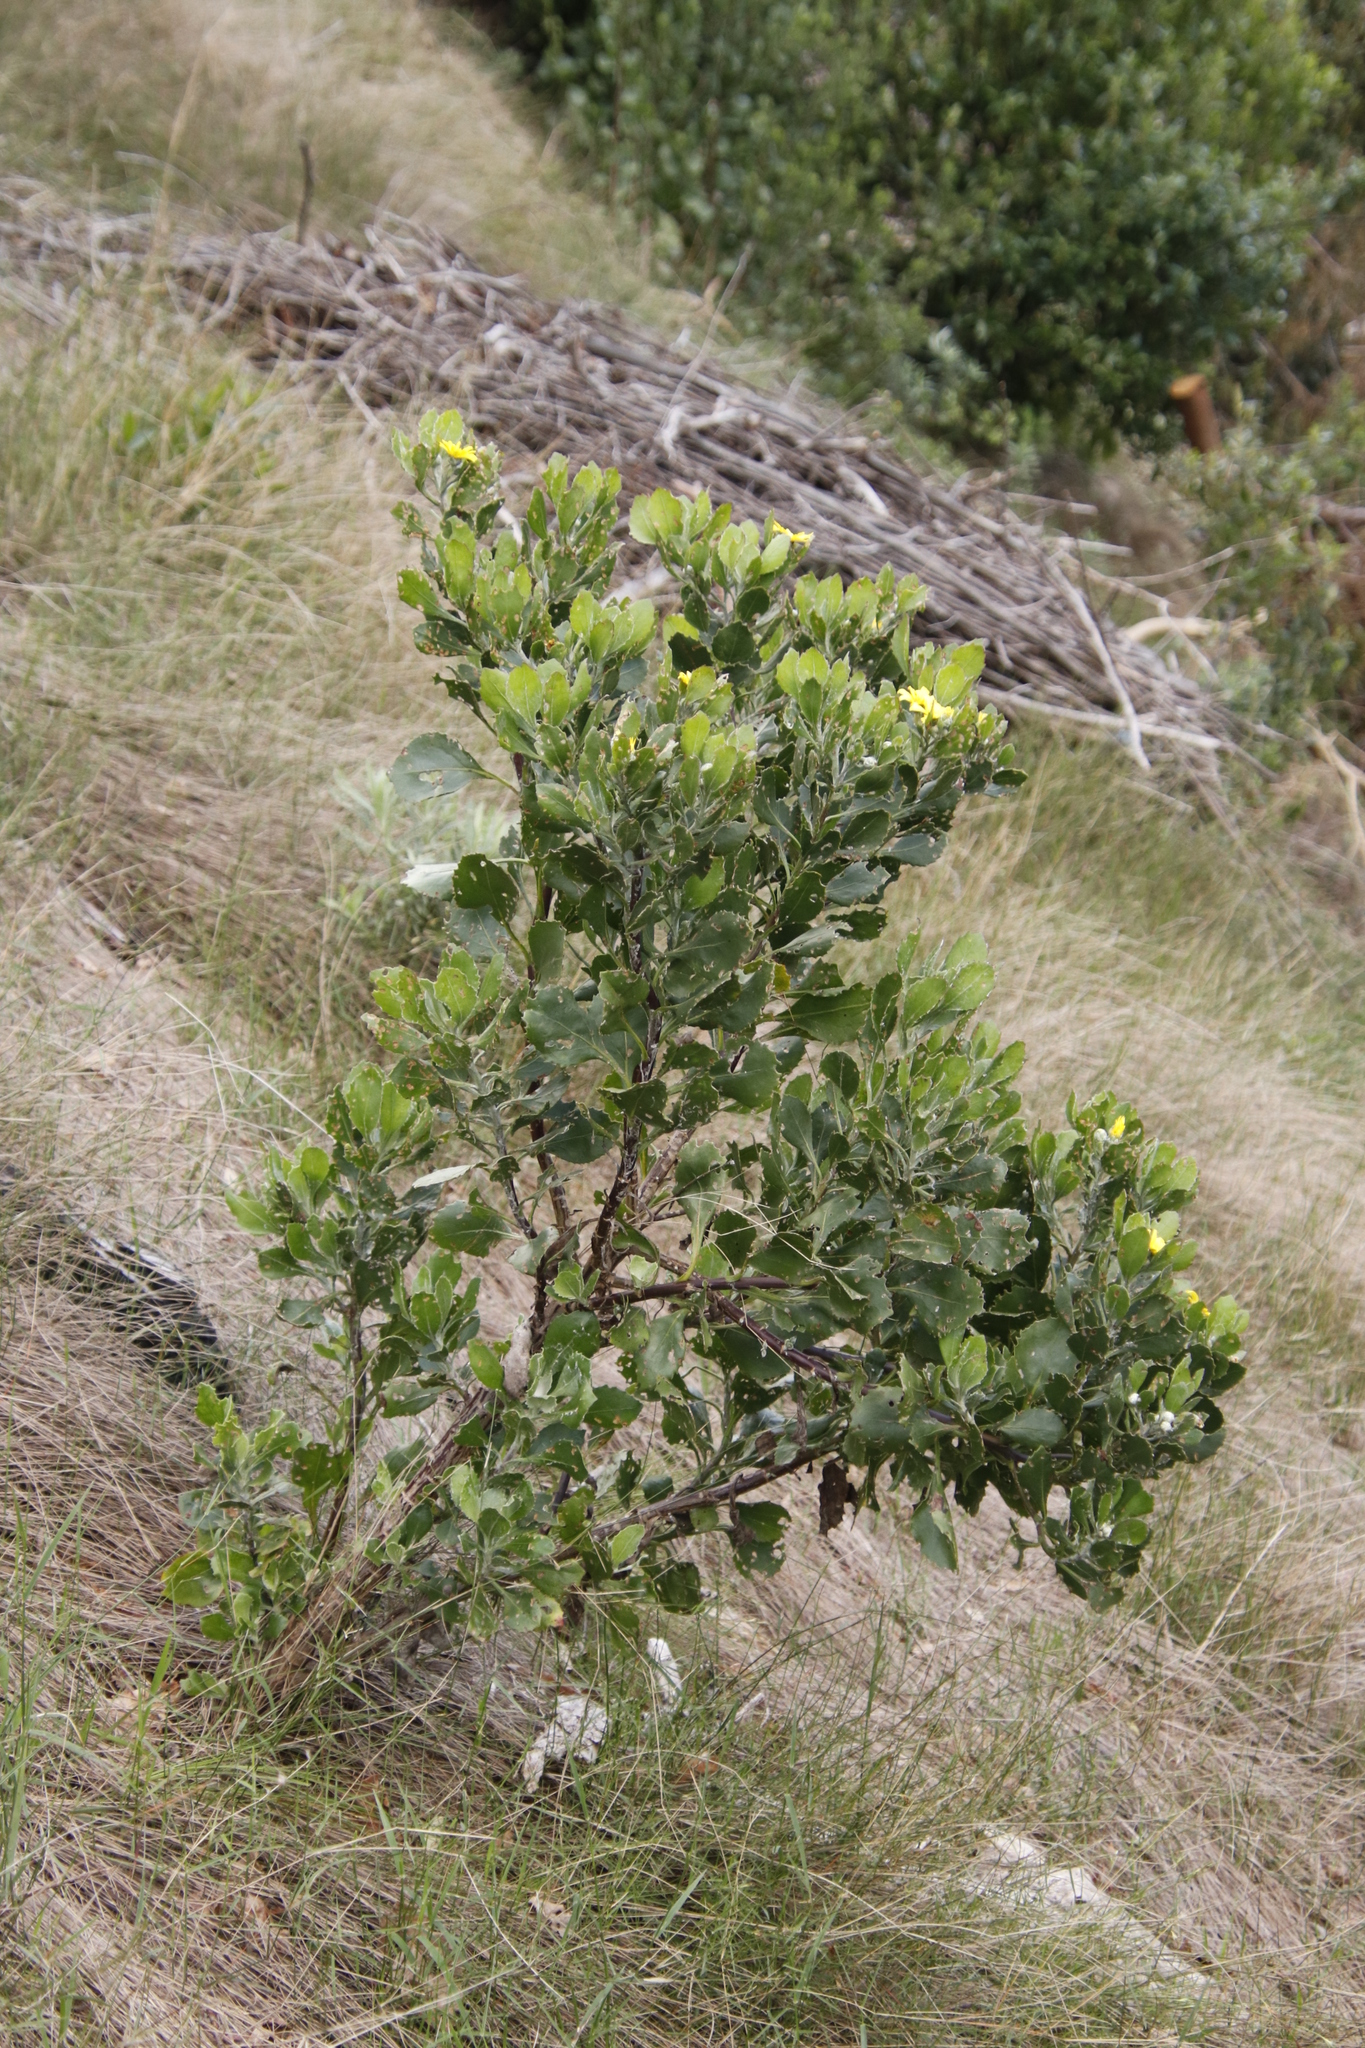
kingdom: Plantae
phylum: Tracheophyta
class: Magnoliopsida
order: Asterales
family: Asteraceae
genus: Osteospermum
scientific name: Osteospermum moniliferum
